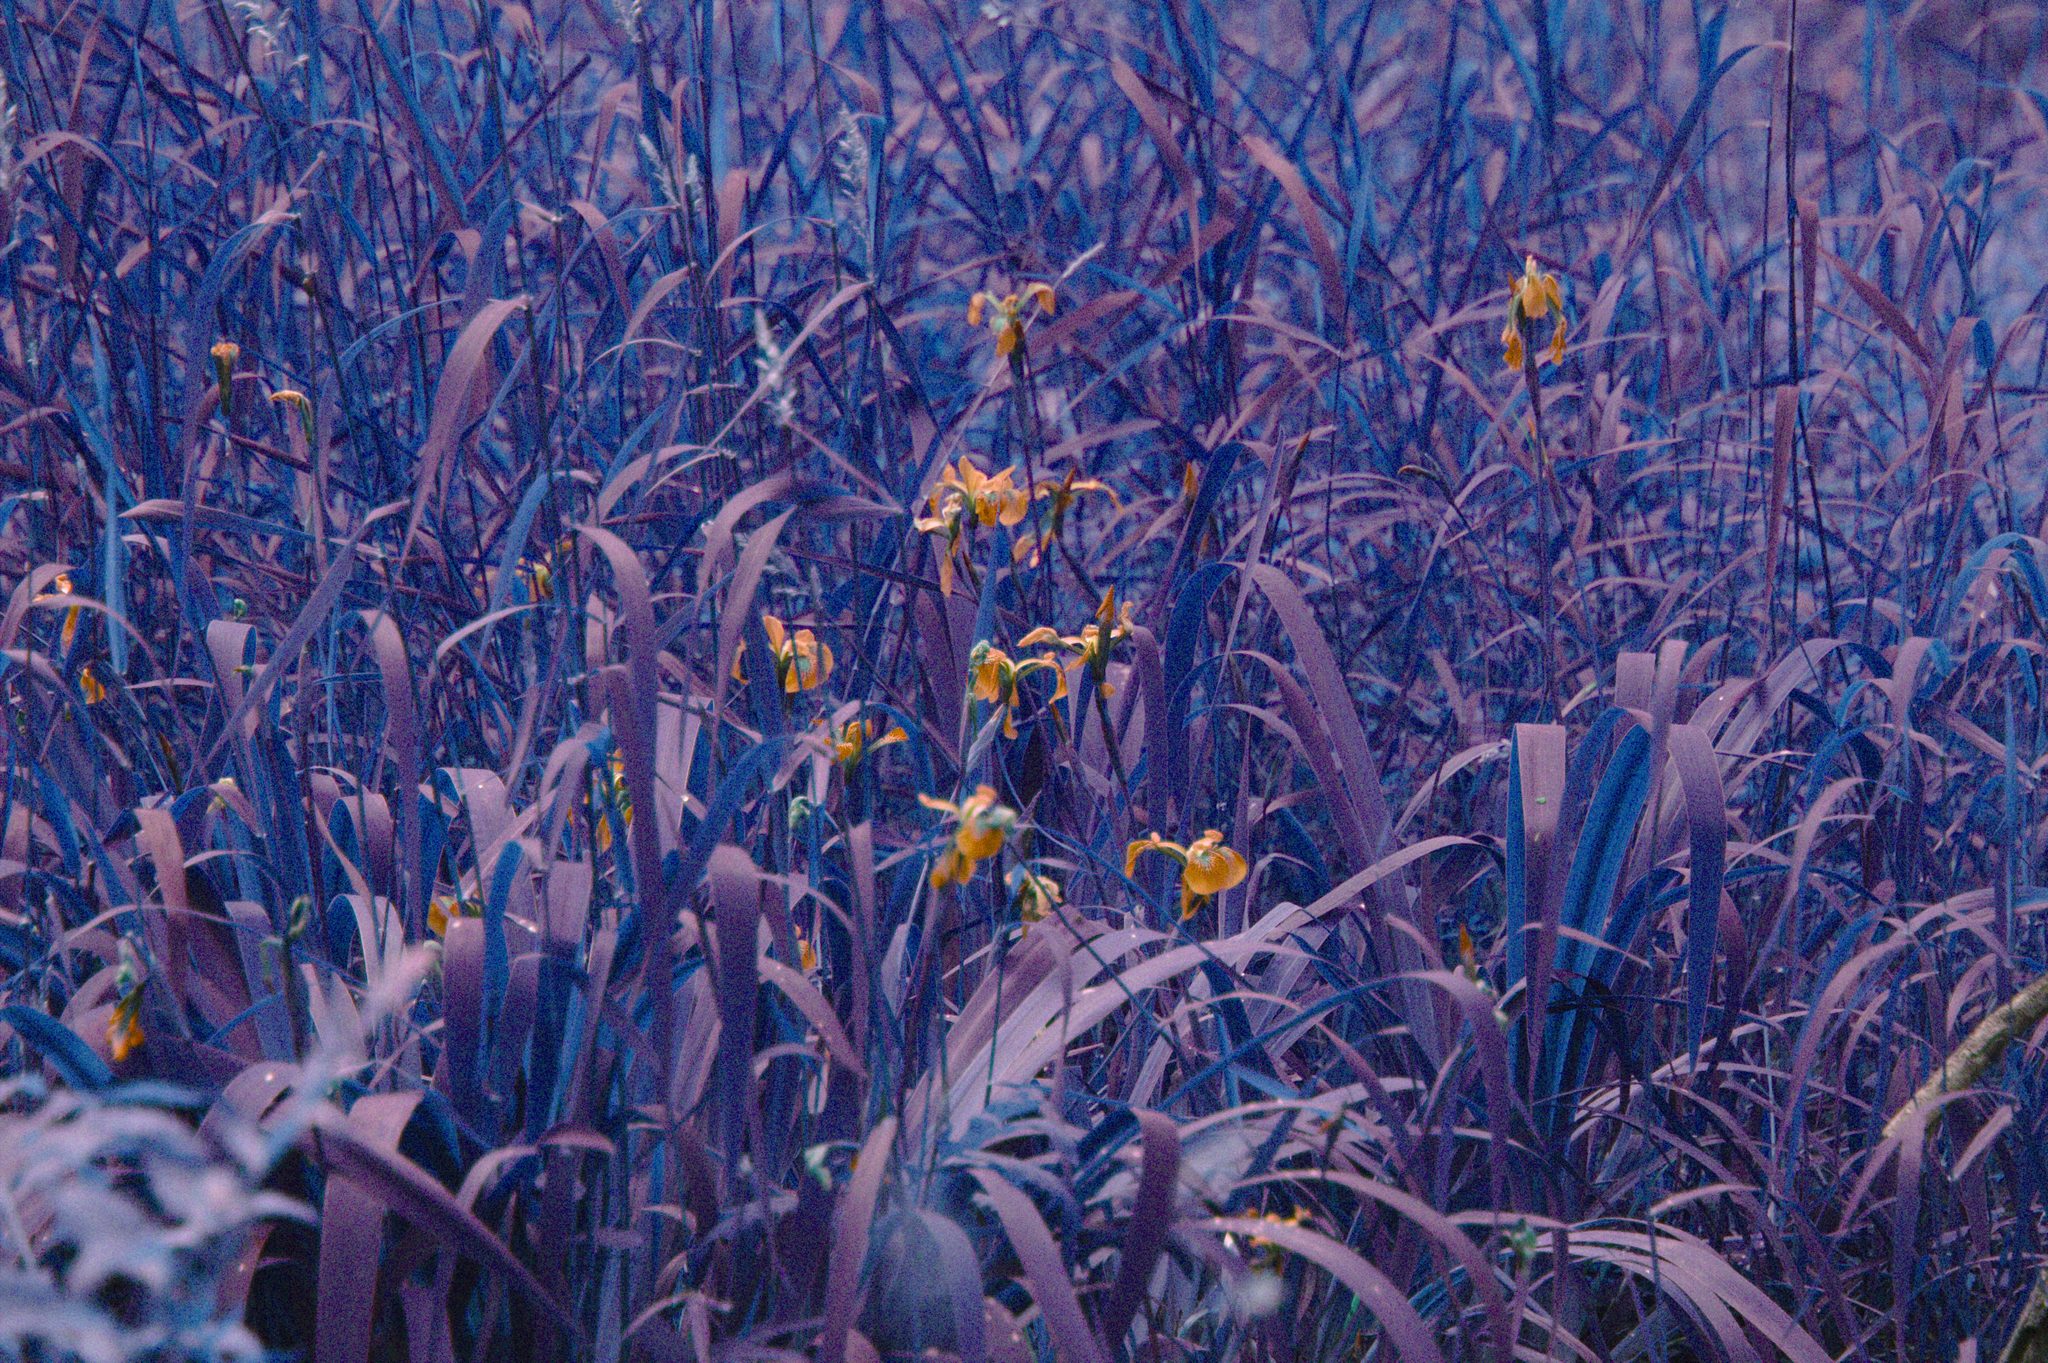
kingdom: Plantae
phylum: Tracheophyta
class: Liliopsida
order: Asparagales
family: Iridaceae
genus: Iris
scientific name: Iris versicolor
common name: Purple iris
